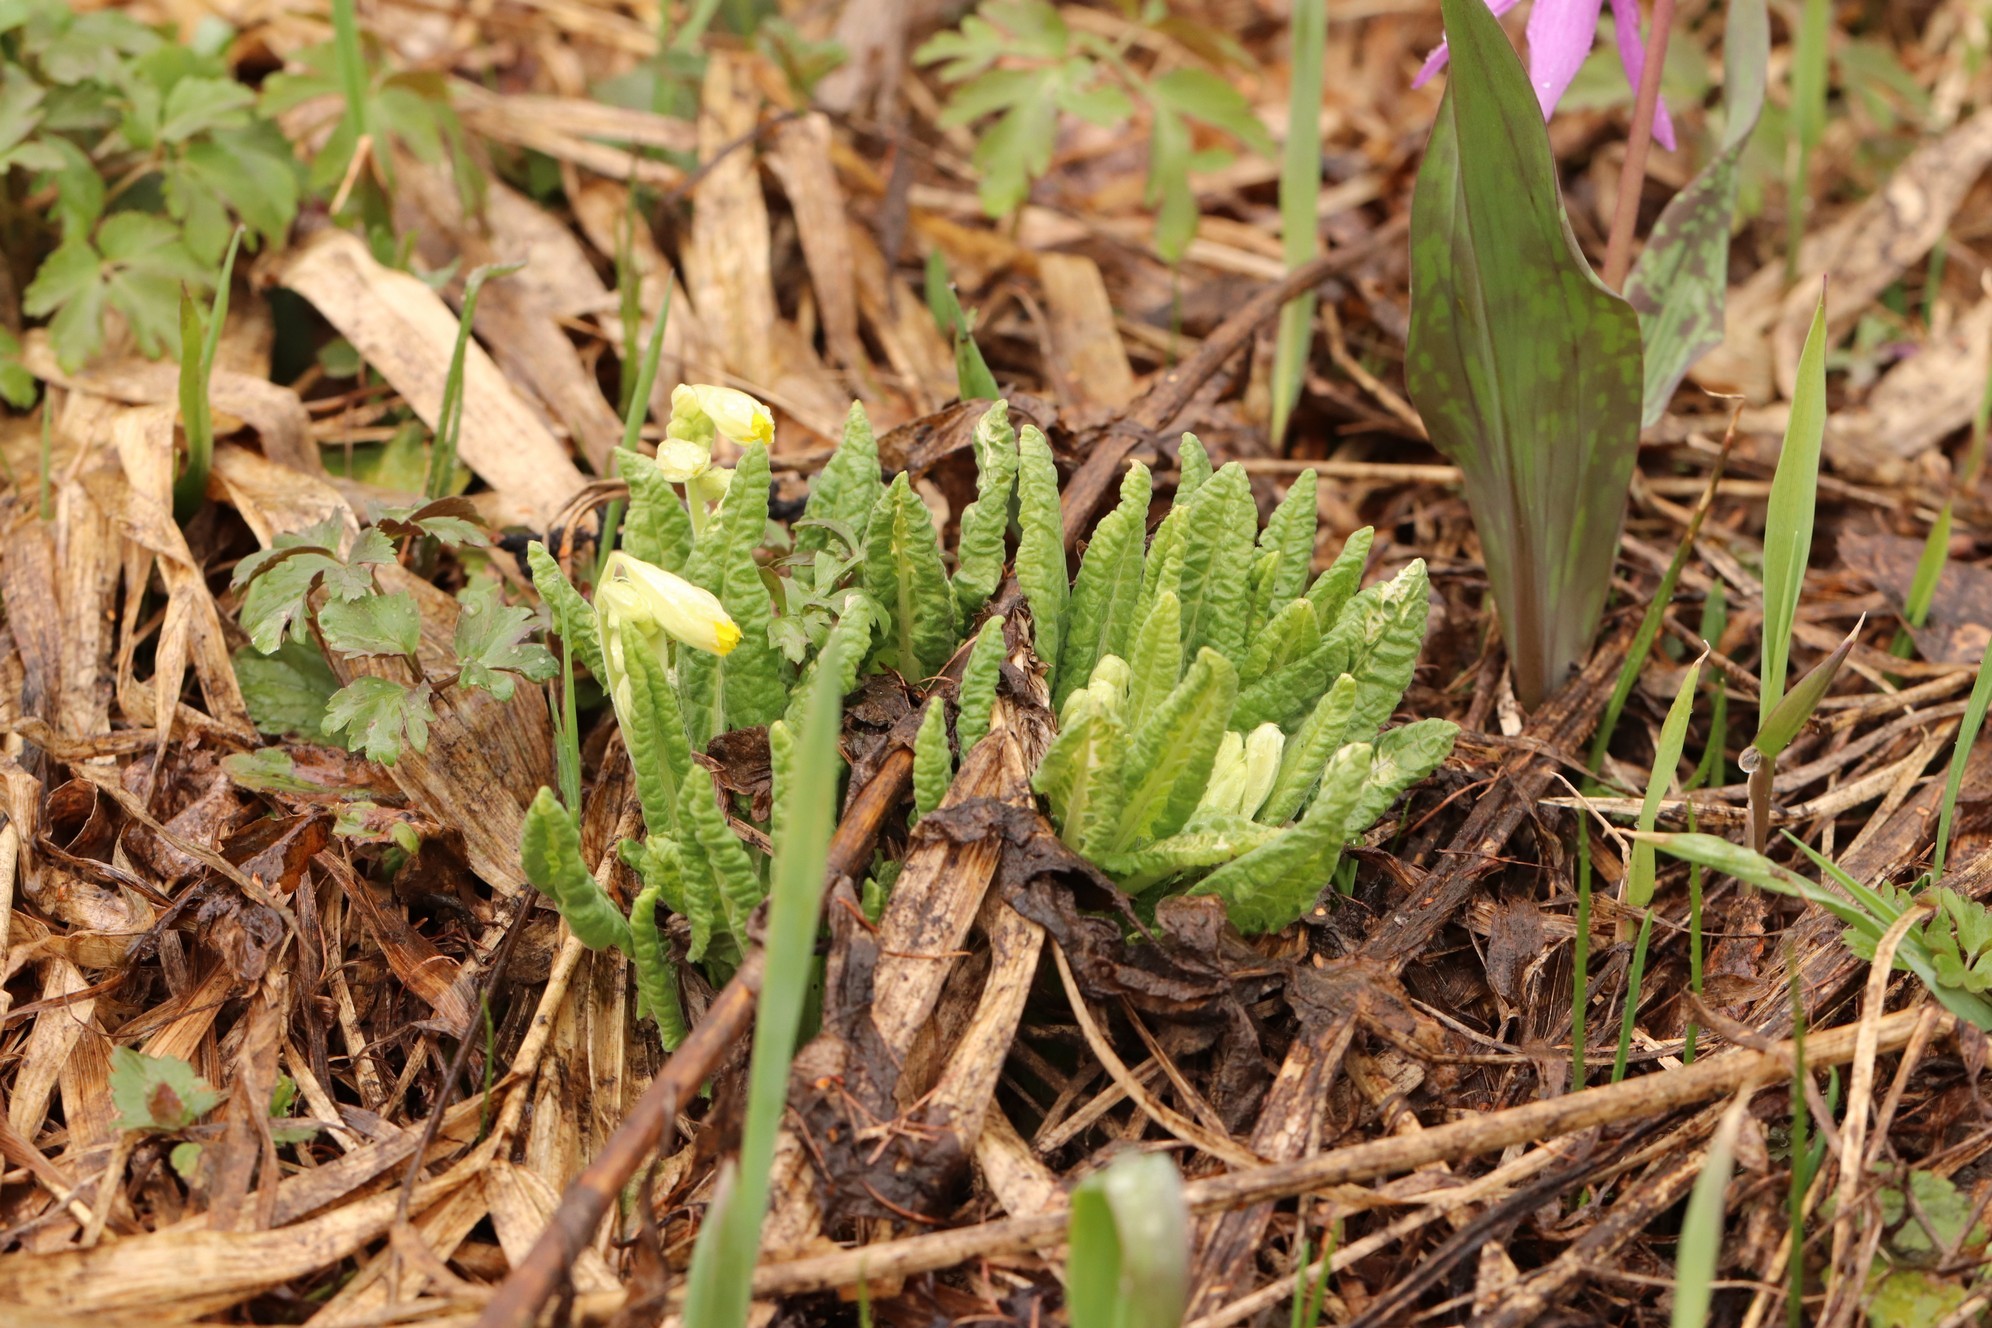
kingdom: Plantae
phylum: Tracheophyta
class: Magnoliopsida
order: Ericales
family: Primulaceae
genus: Primula
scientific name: Primula veris
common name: Cowslip
